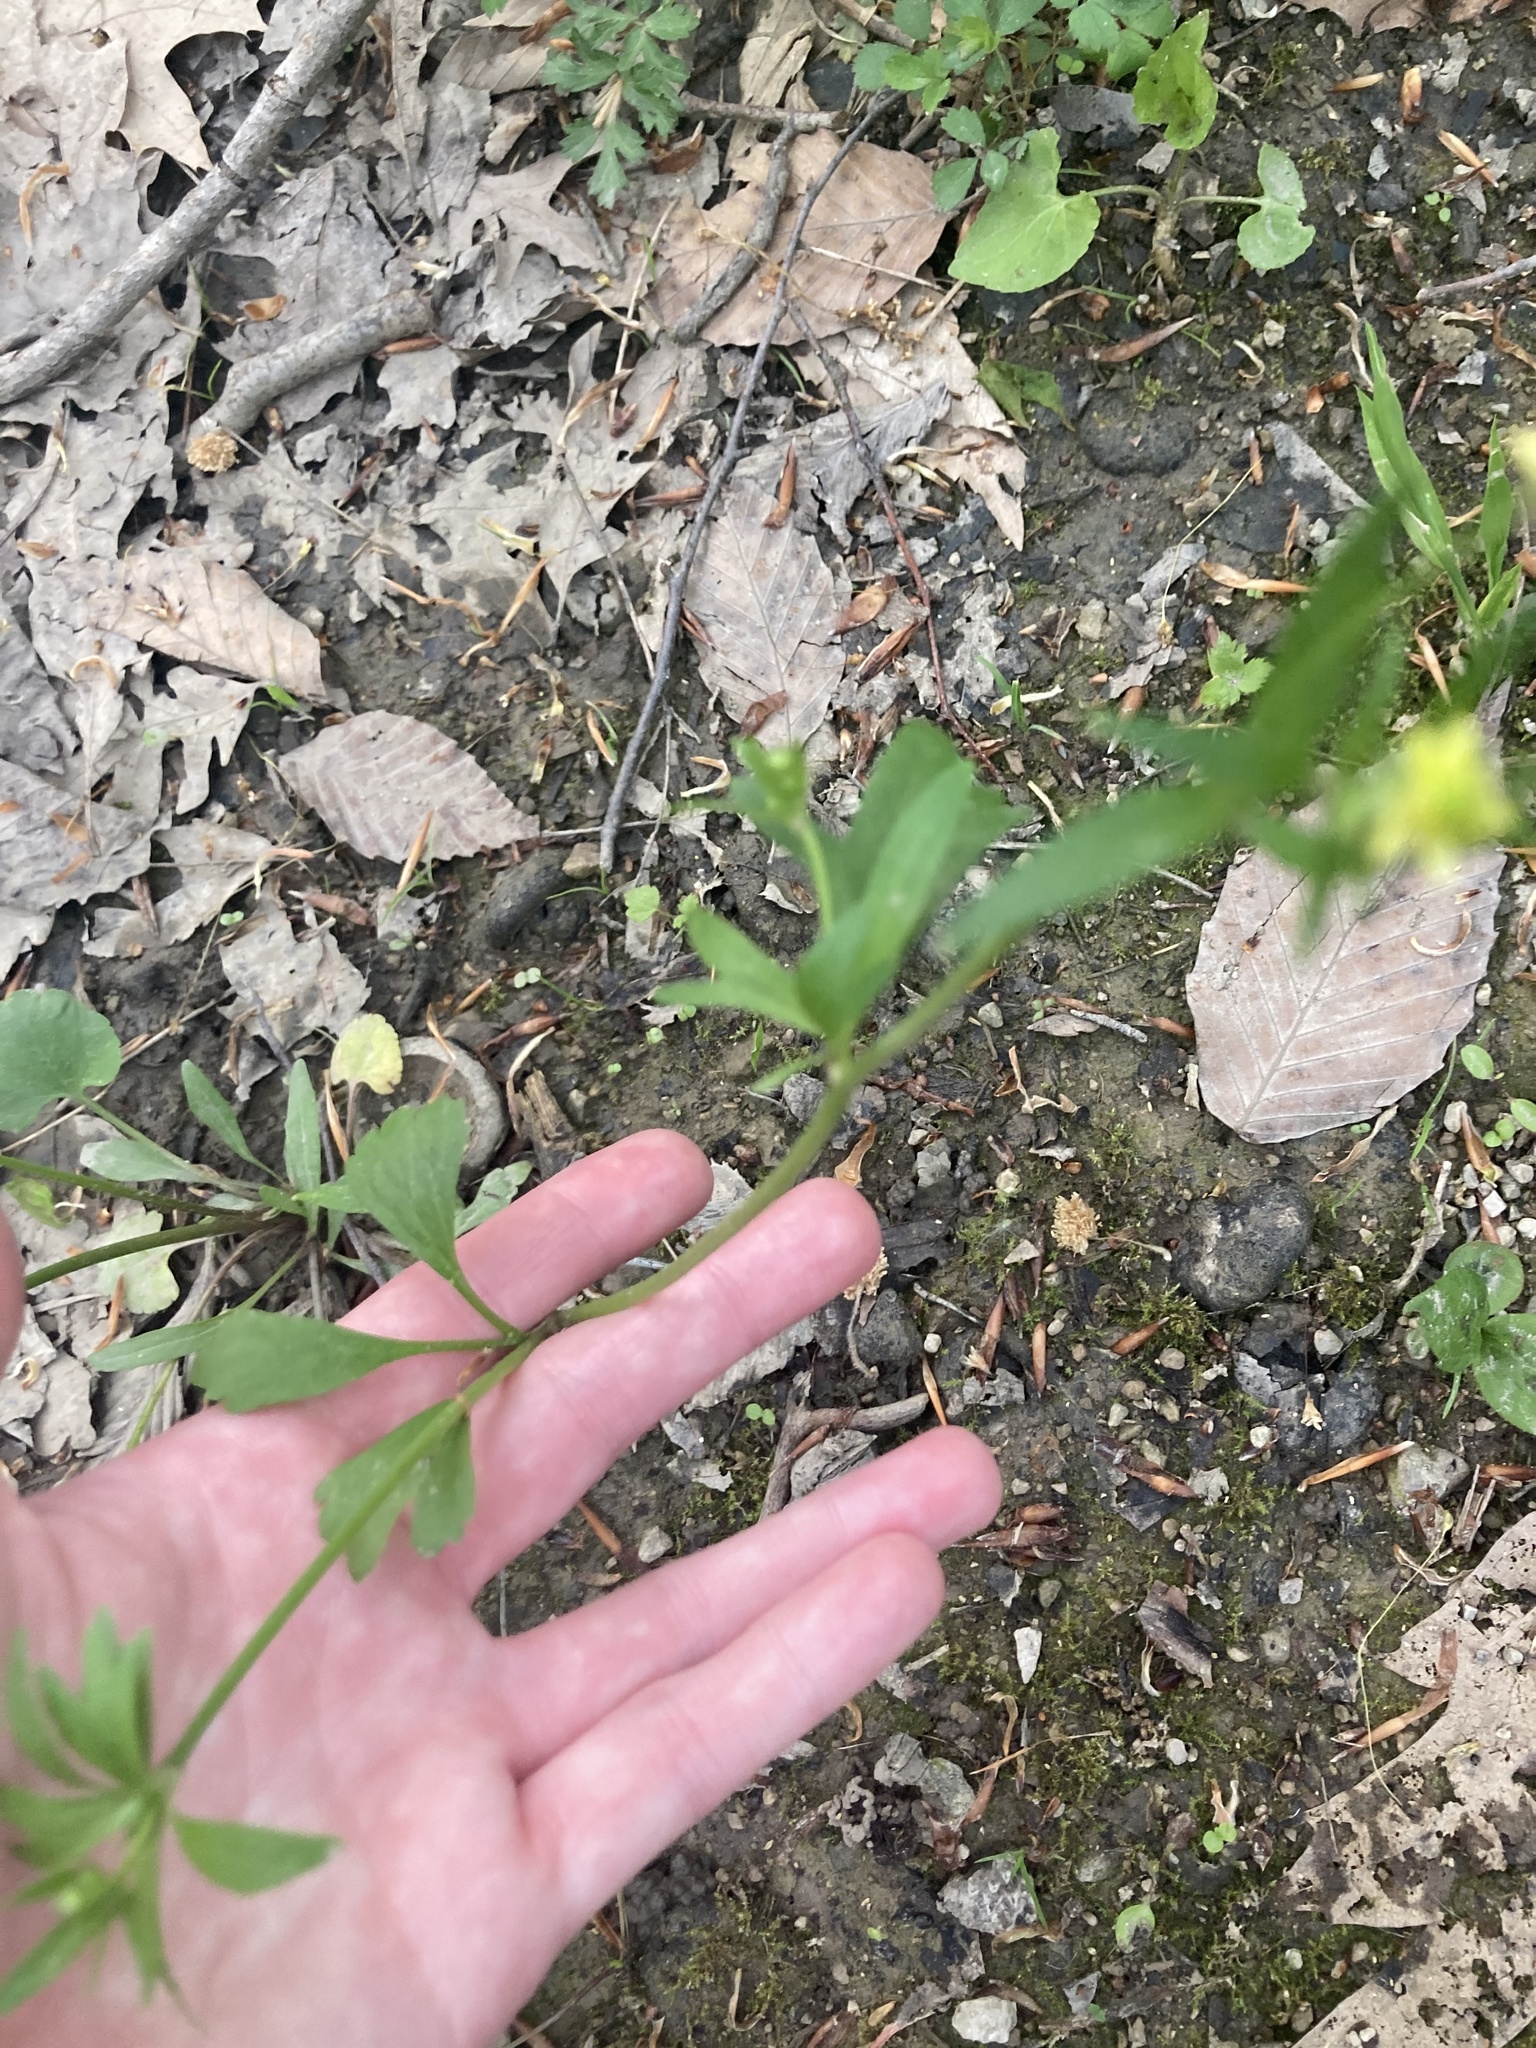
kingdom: Plantae
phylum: Tracheophyta
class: Magnoliopsida
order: Ranunculales
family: Ranunculaceae
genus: Ranunculus
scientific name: Ranunculus abortivus
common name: Early wood buttercup
